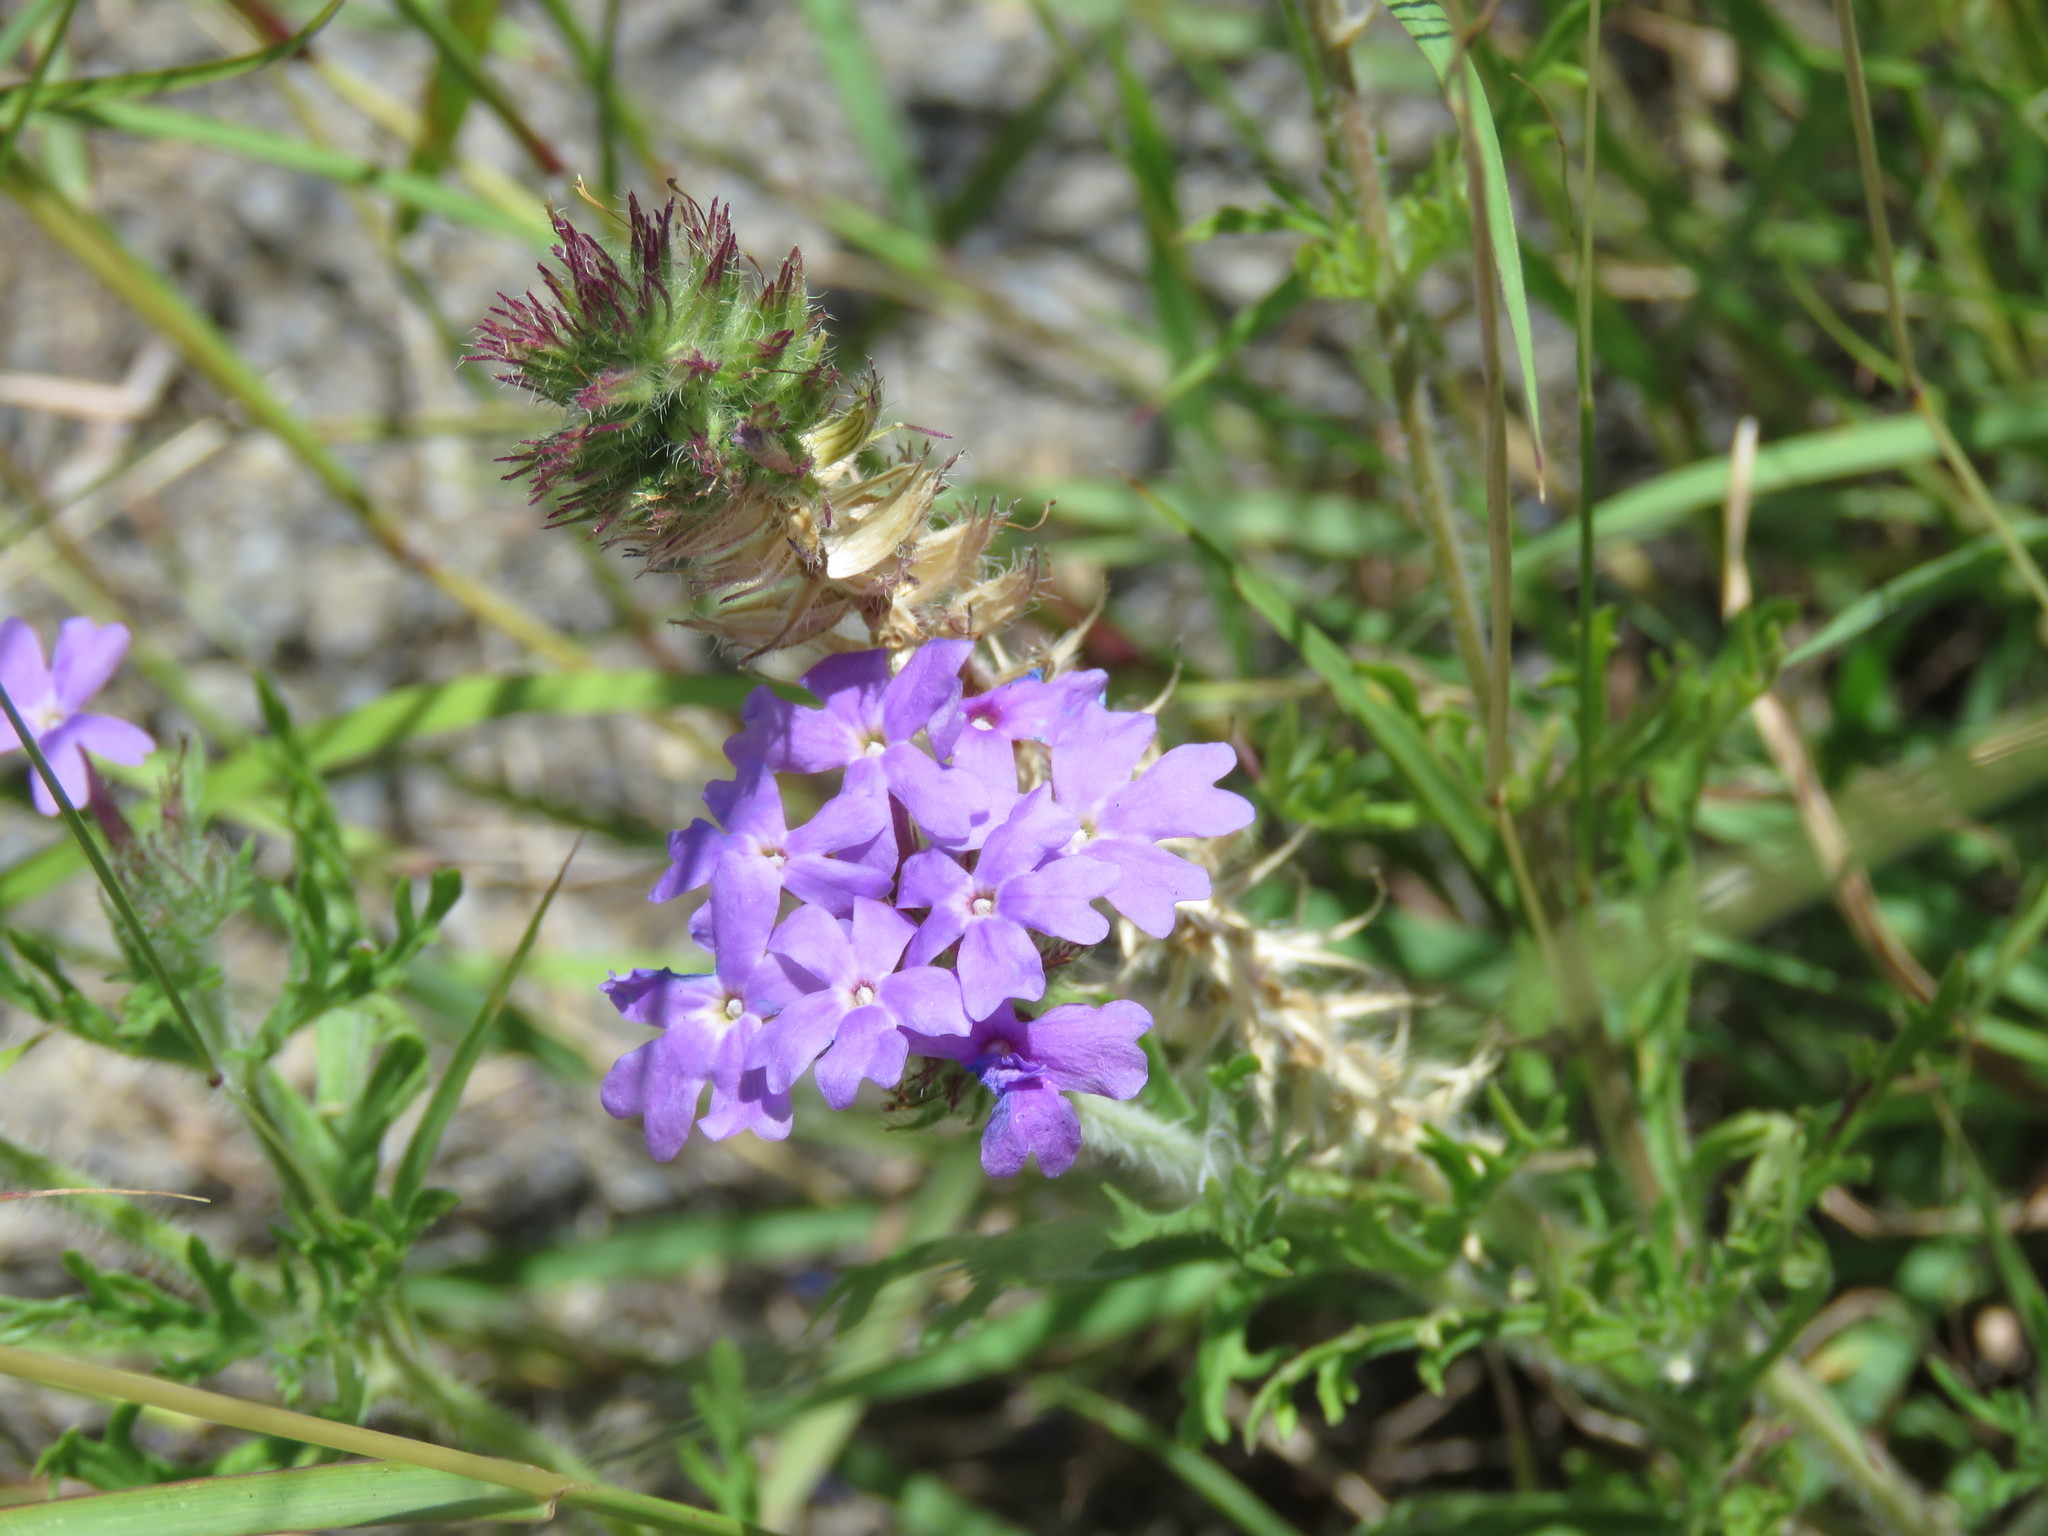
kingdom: Plantae
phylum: Tracheophyta
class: Magnoliopsida
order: Lamiales
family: Verbenaceae
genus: Verbena
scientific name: Verbena delticola
